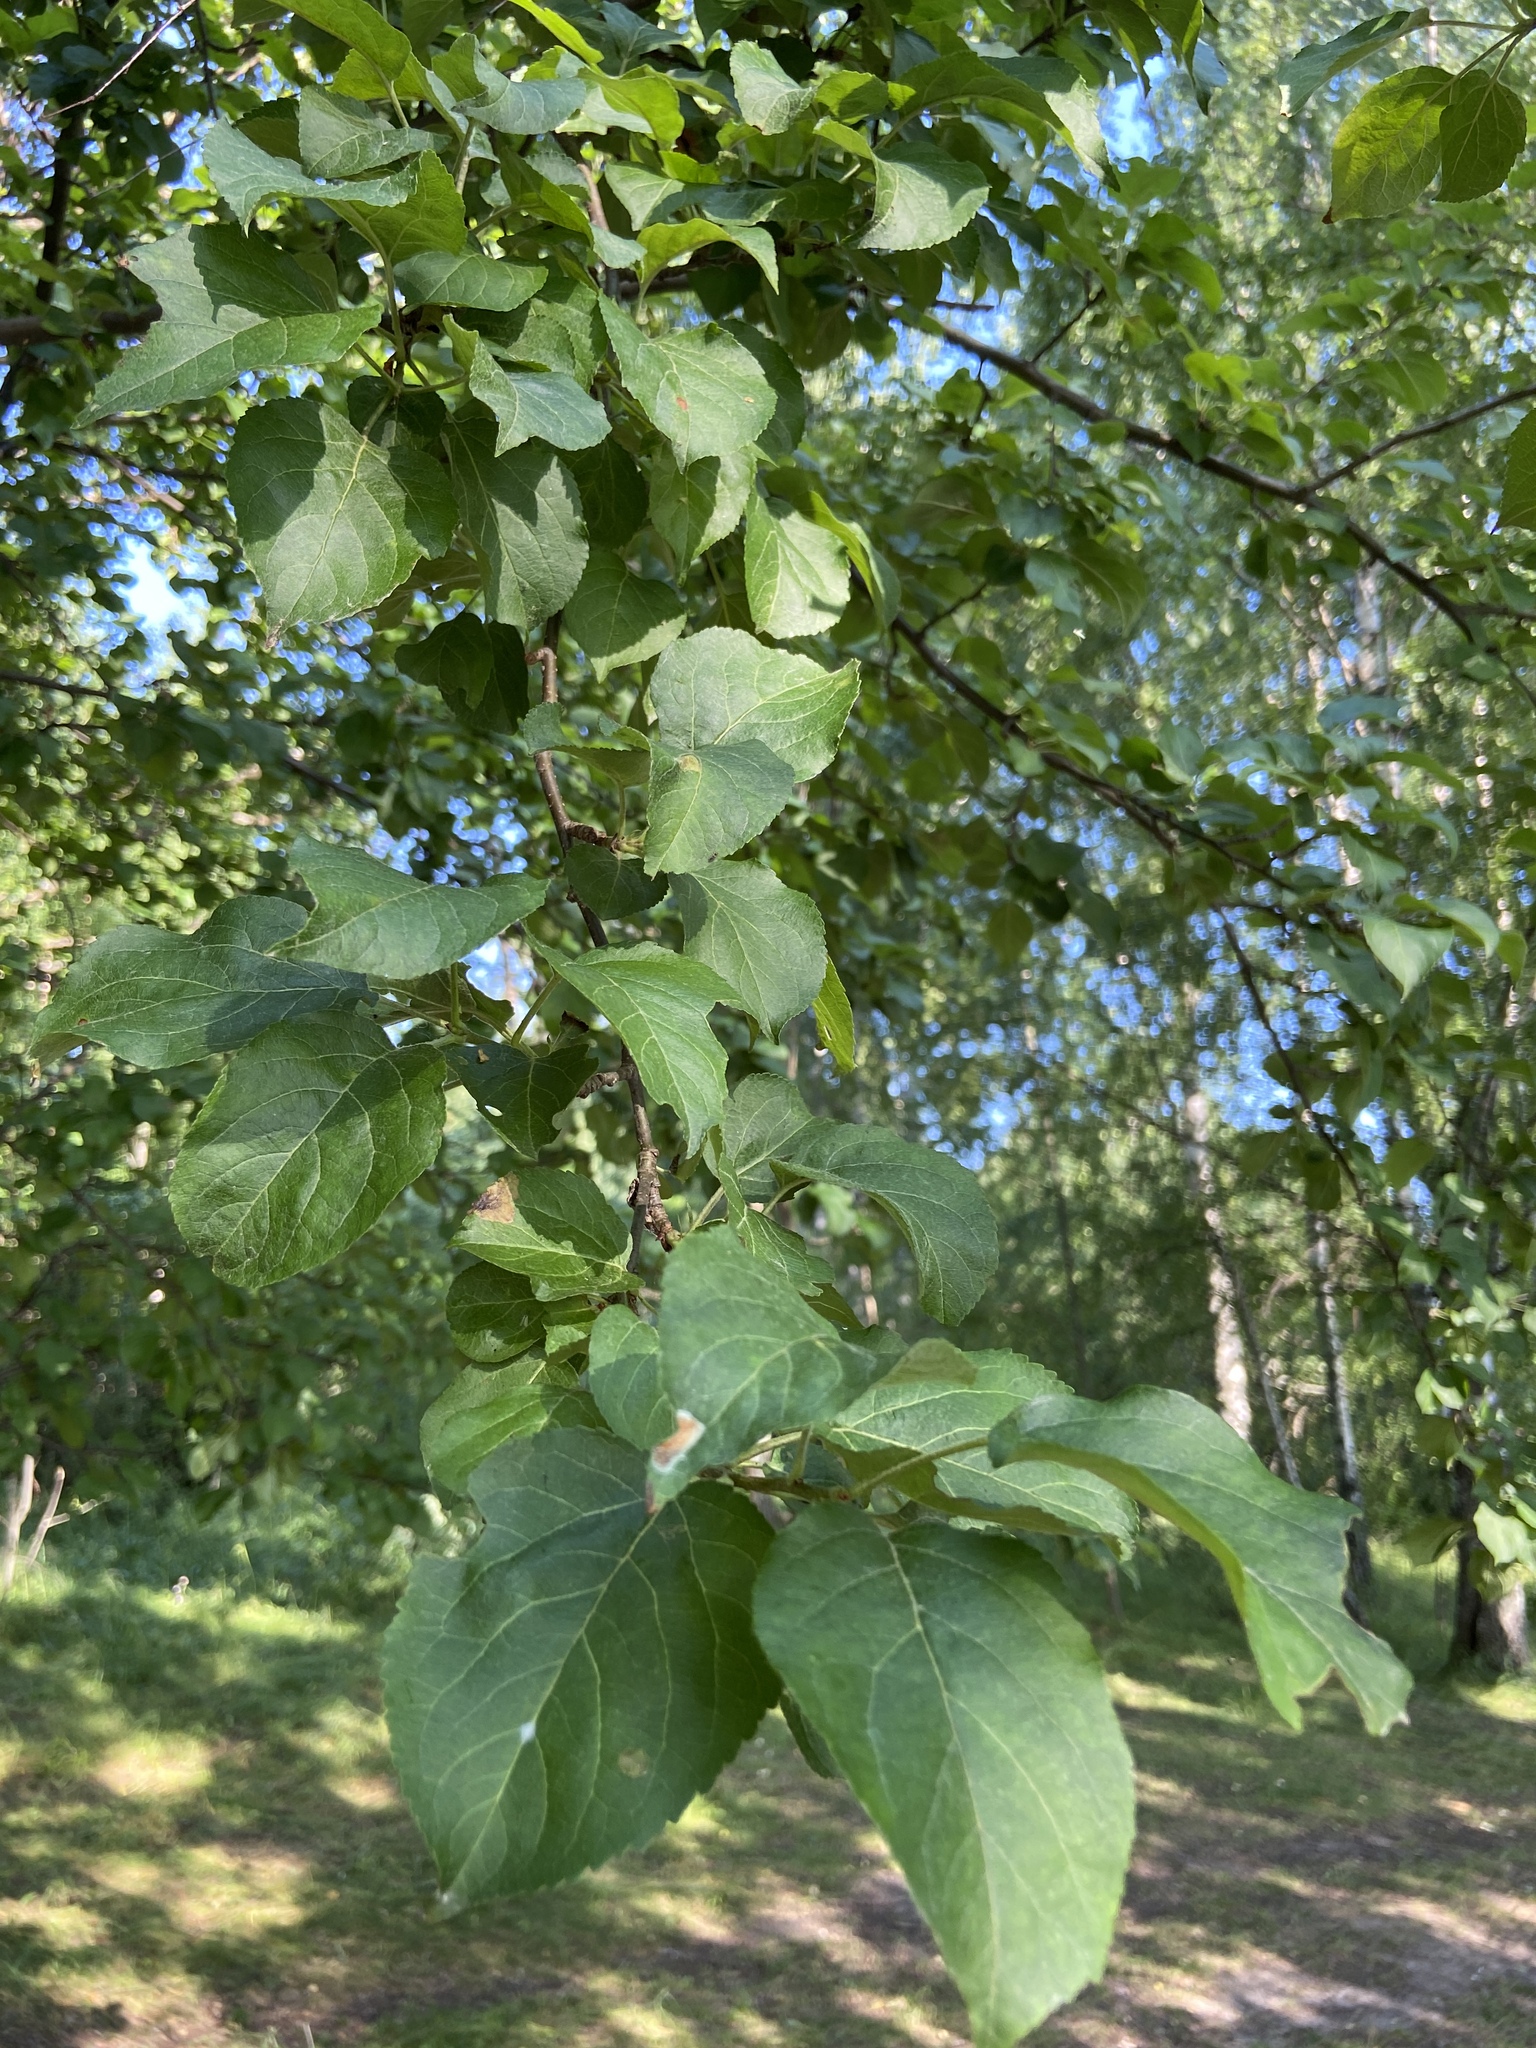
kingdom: Plantae
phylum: Tracheophyta
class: Magnoliopsida
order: Rosales
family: Rosaceae
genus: Malus
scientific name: Malus domestica
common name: Apple
